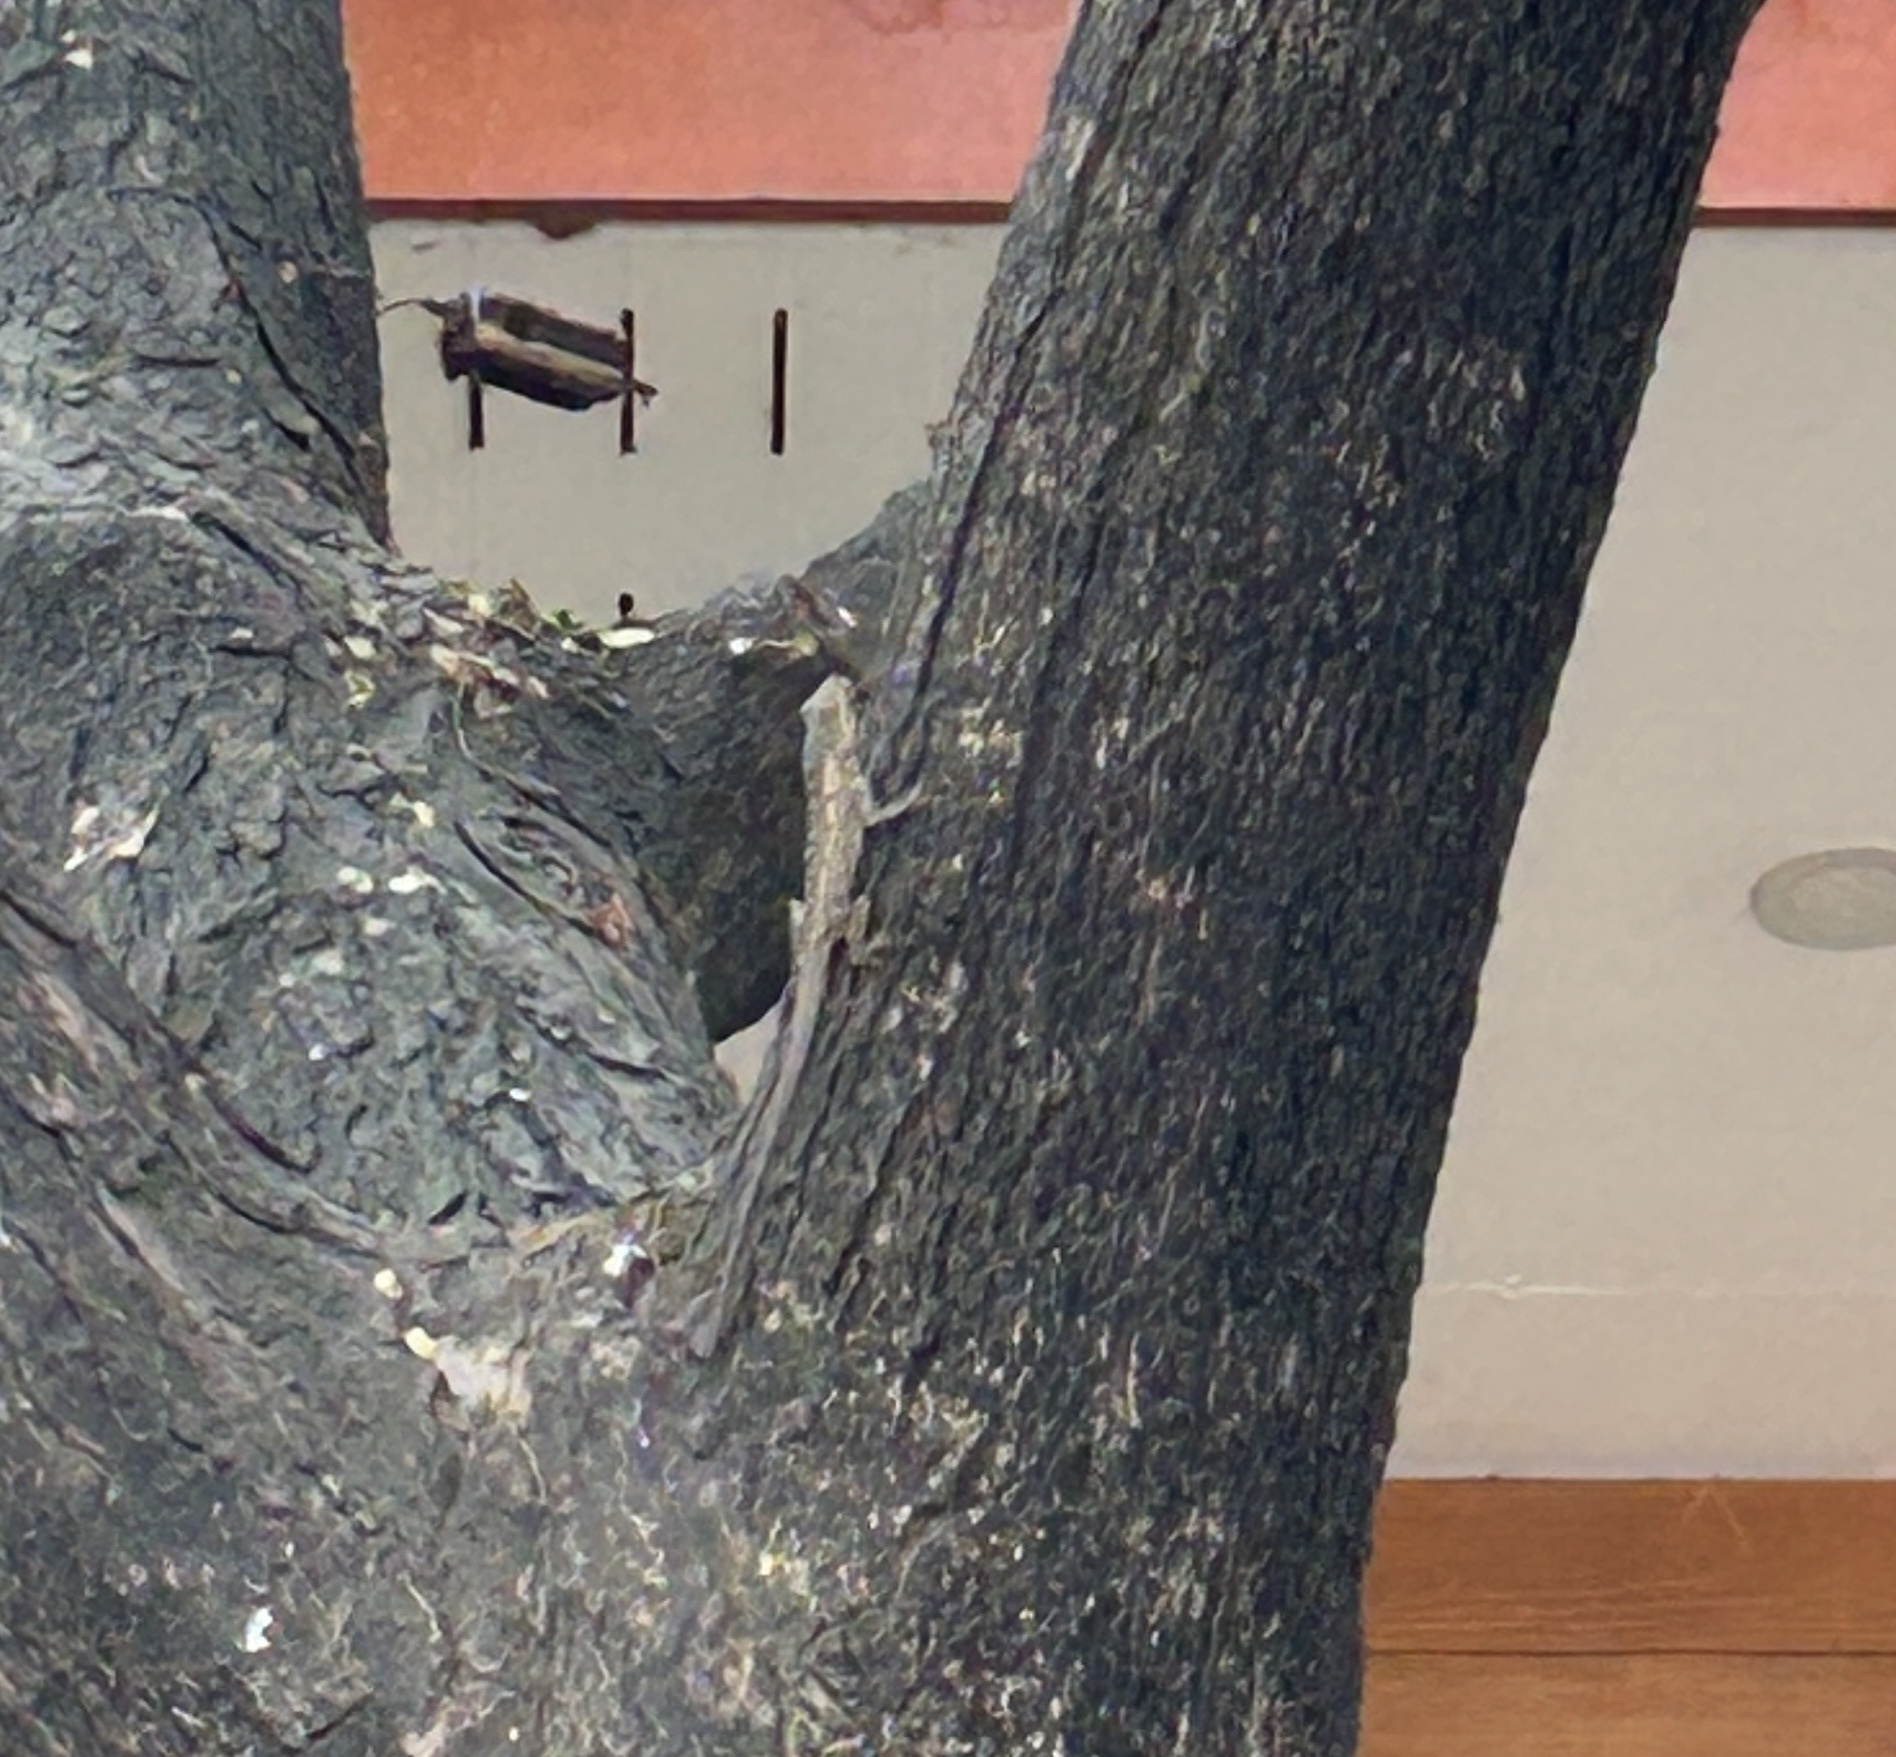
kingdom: Animalia
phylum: Chordata
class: Squamata
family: Agamidae
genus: Calotes
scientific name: Calotes goetzi
